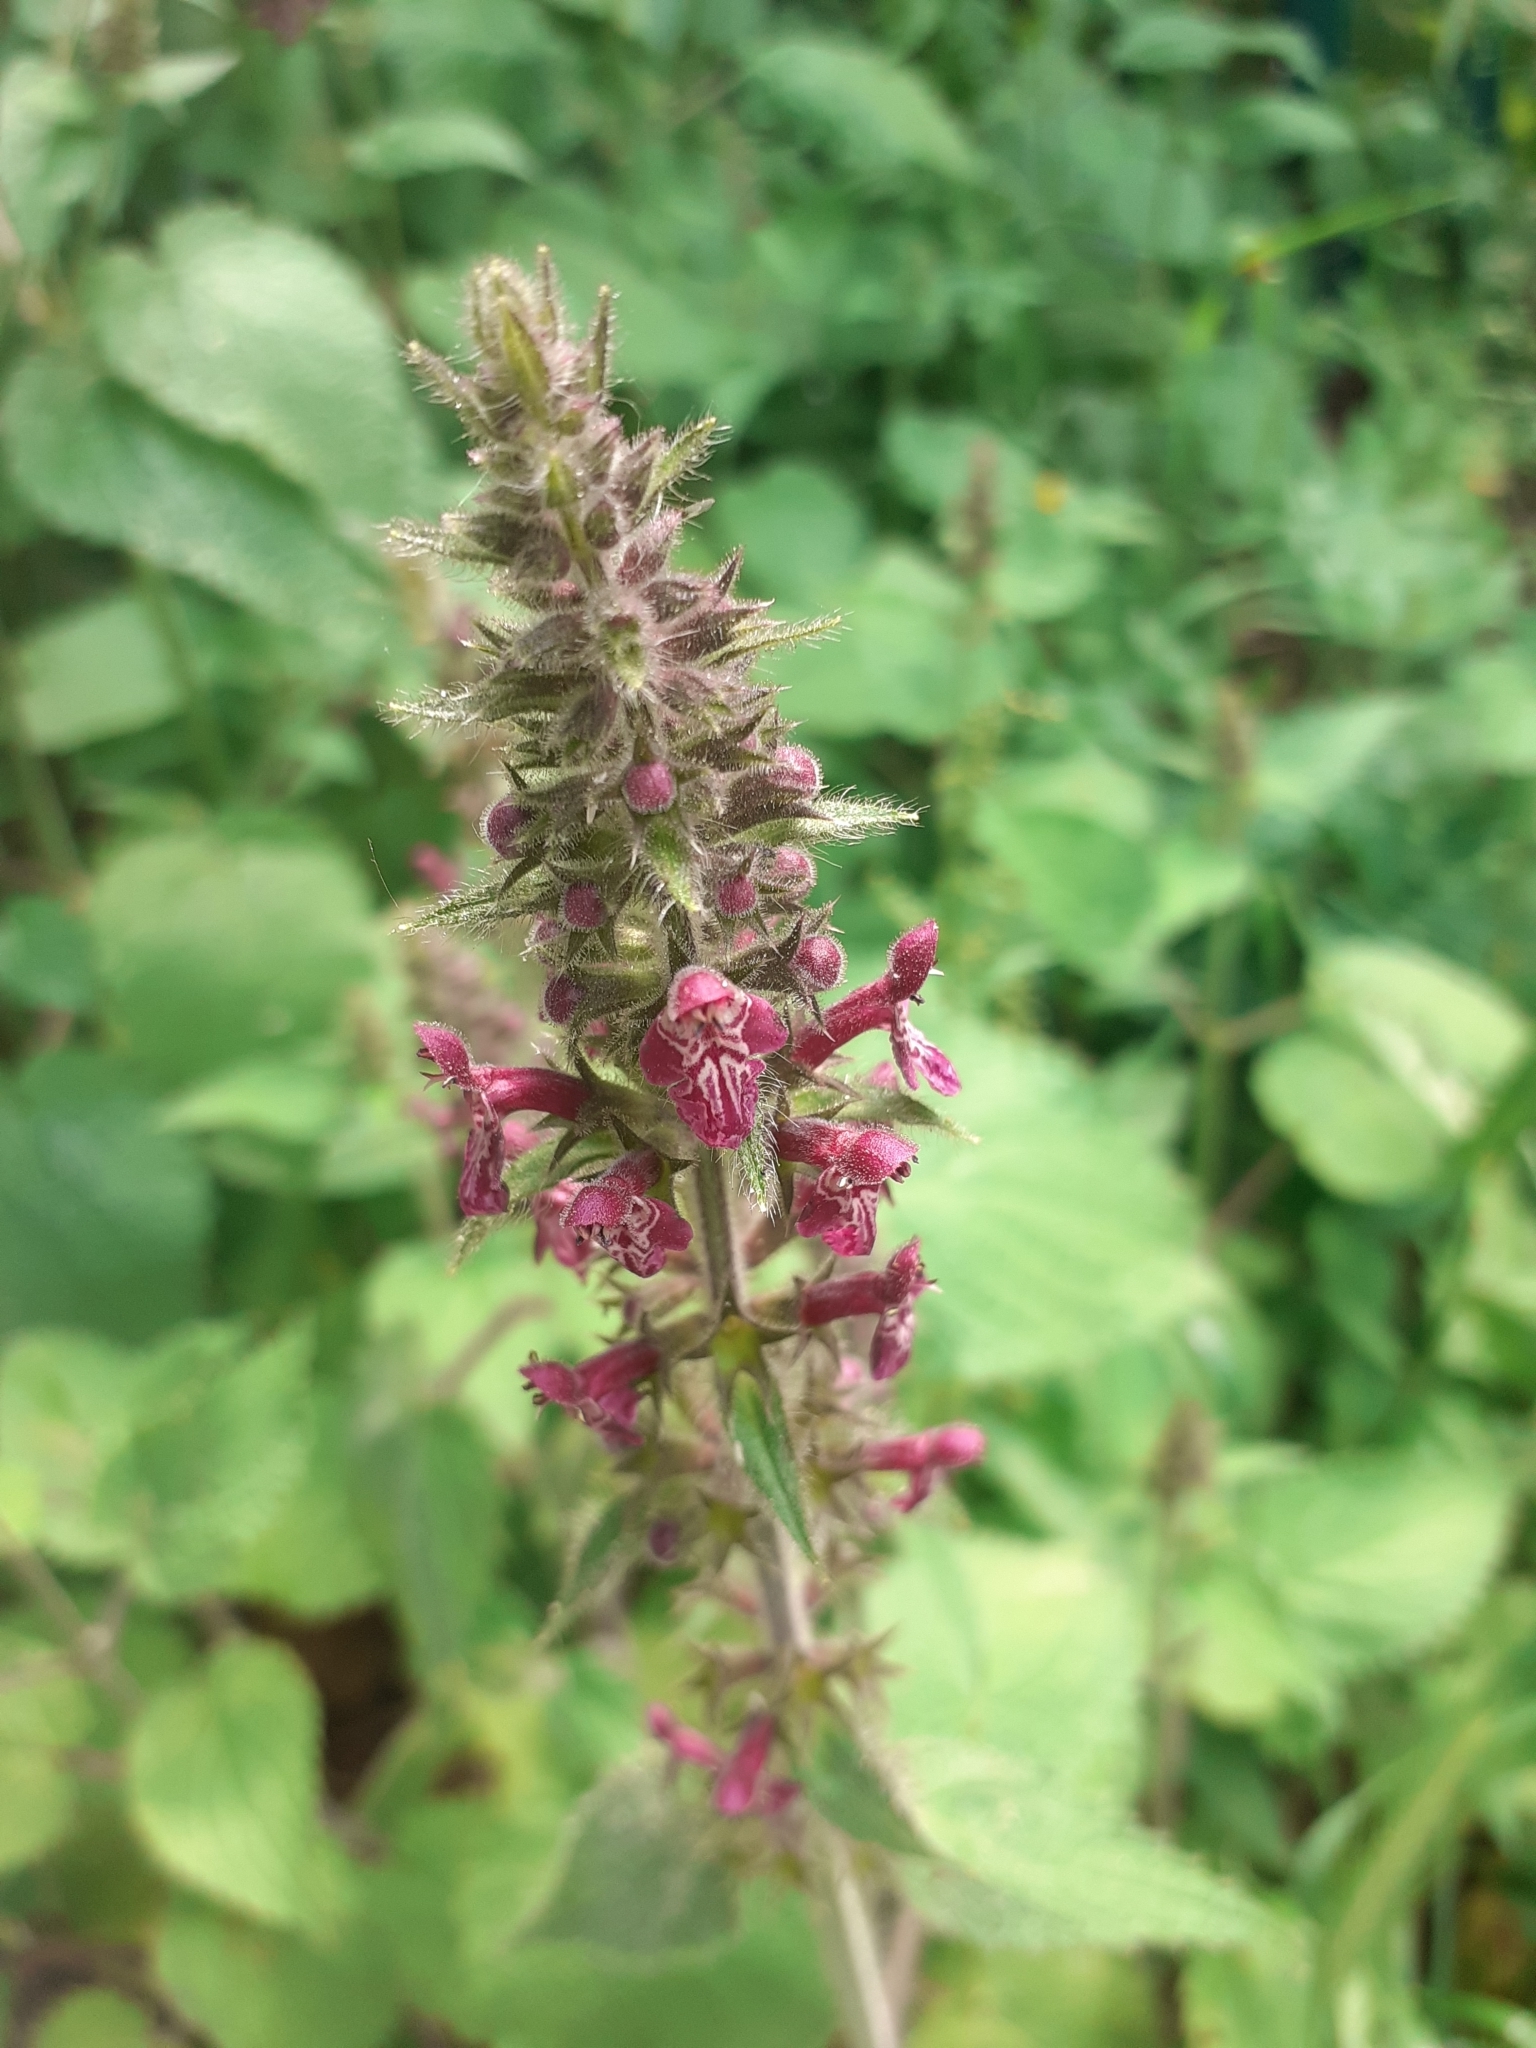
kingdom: Plantae
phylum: Tracheophyta
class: Magnoliopsida
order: Lamiales
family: Lamiaceae
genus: Stachys
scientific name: Stachys sylvatica
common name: Hedge woundwort
